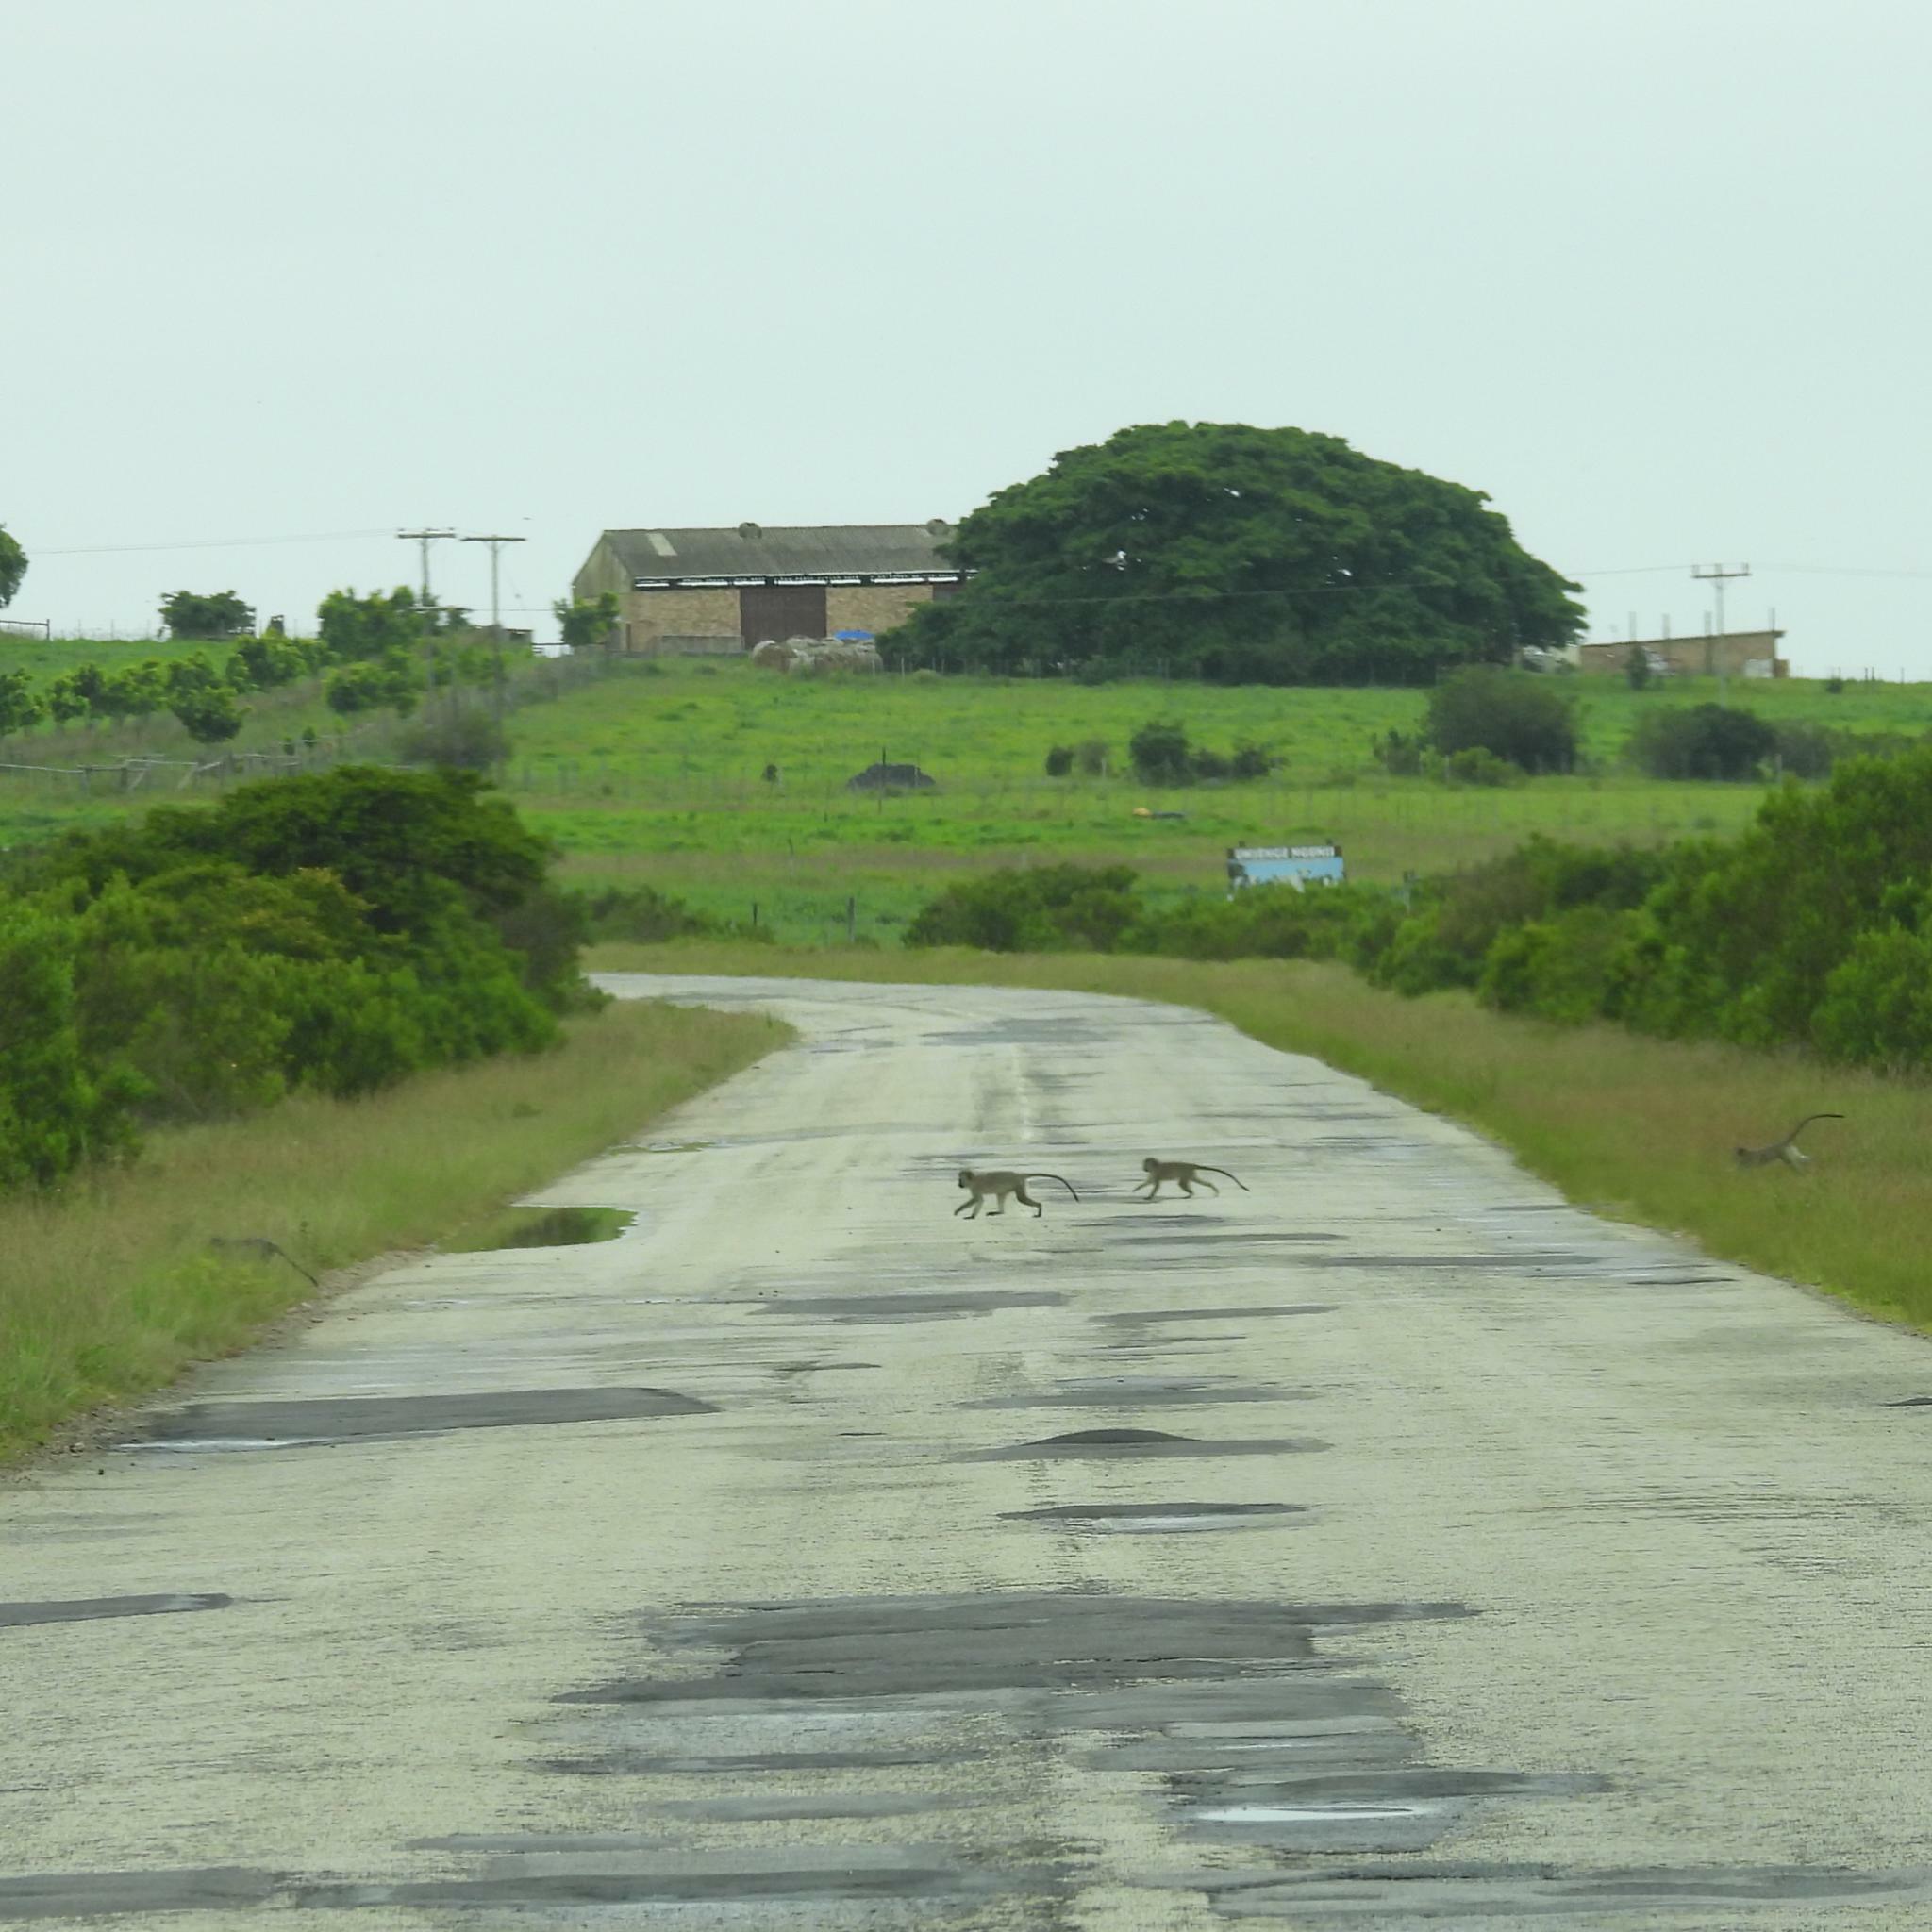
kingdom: Animalia
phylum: Chordata
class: Mammalia
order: Primates
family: Cercopithecidae
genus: Chlorocebus
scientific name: Chlorocebus pygerythrus
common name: Vervet monkey
